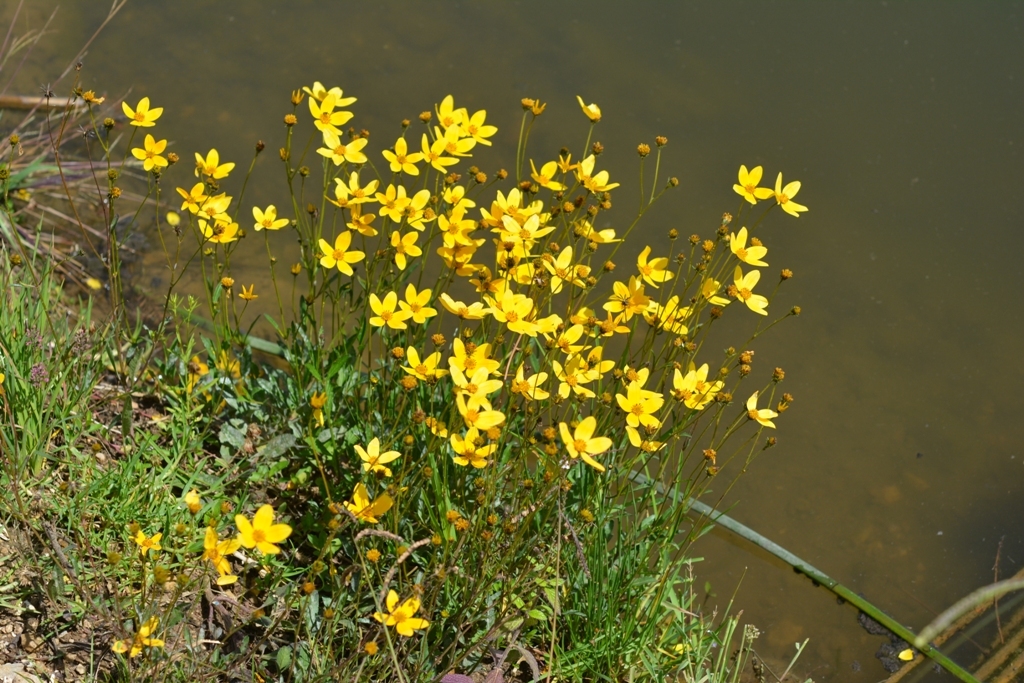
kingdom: Plantae
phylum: Tracheophyta
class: Magnoliopsida
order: Asterales
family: Asteraceae
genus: Bidens
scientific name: Bidens aurea
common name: Arizona beggar-ticks
